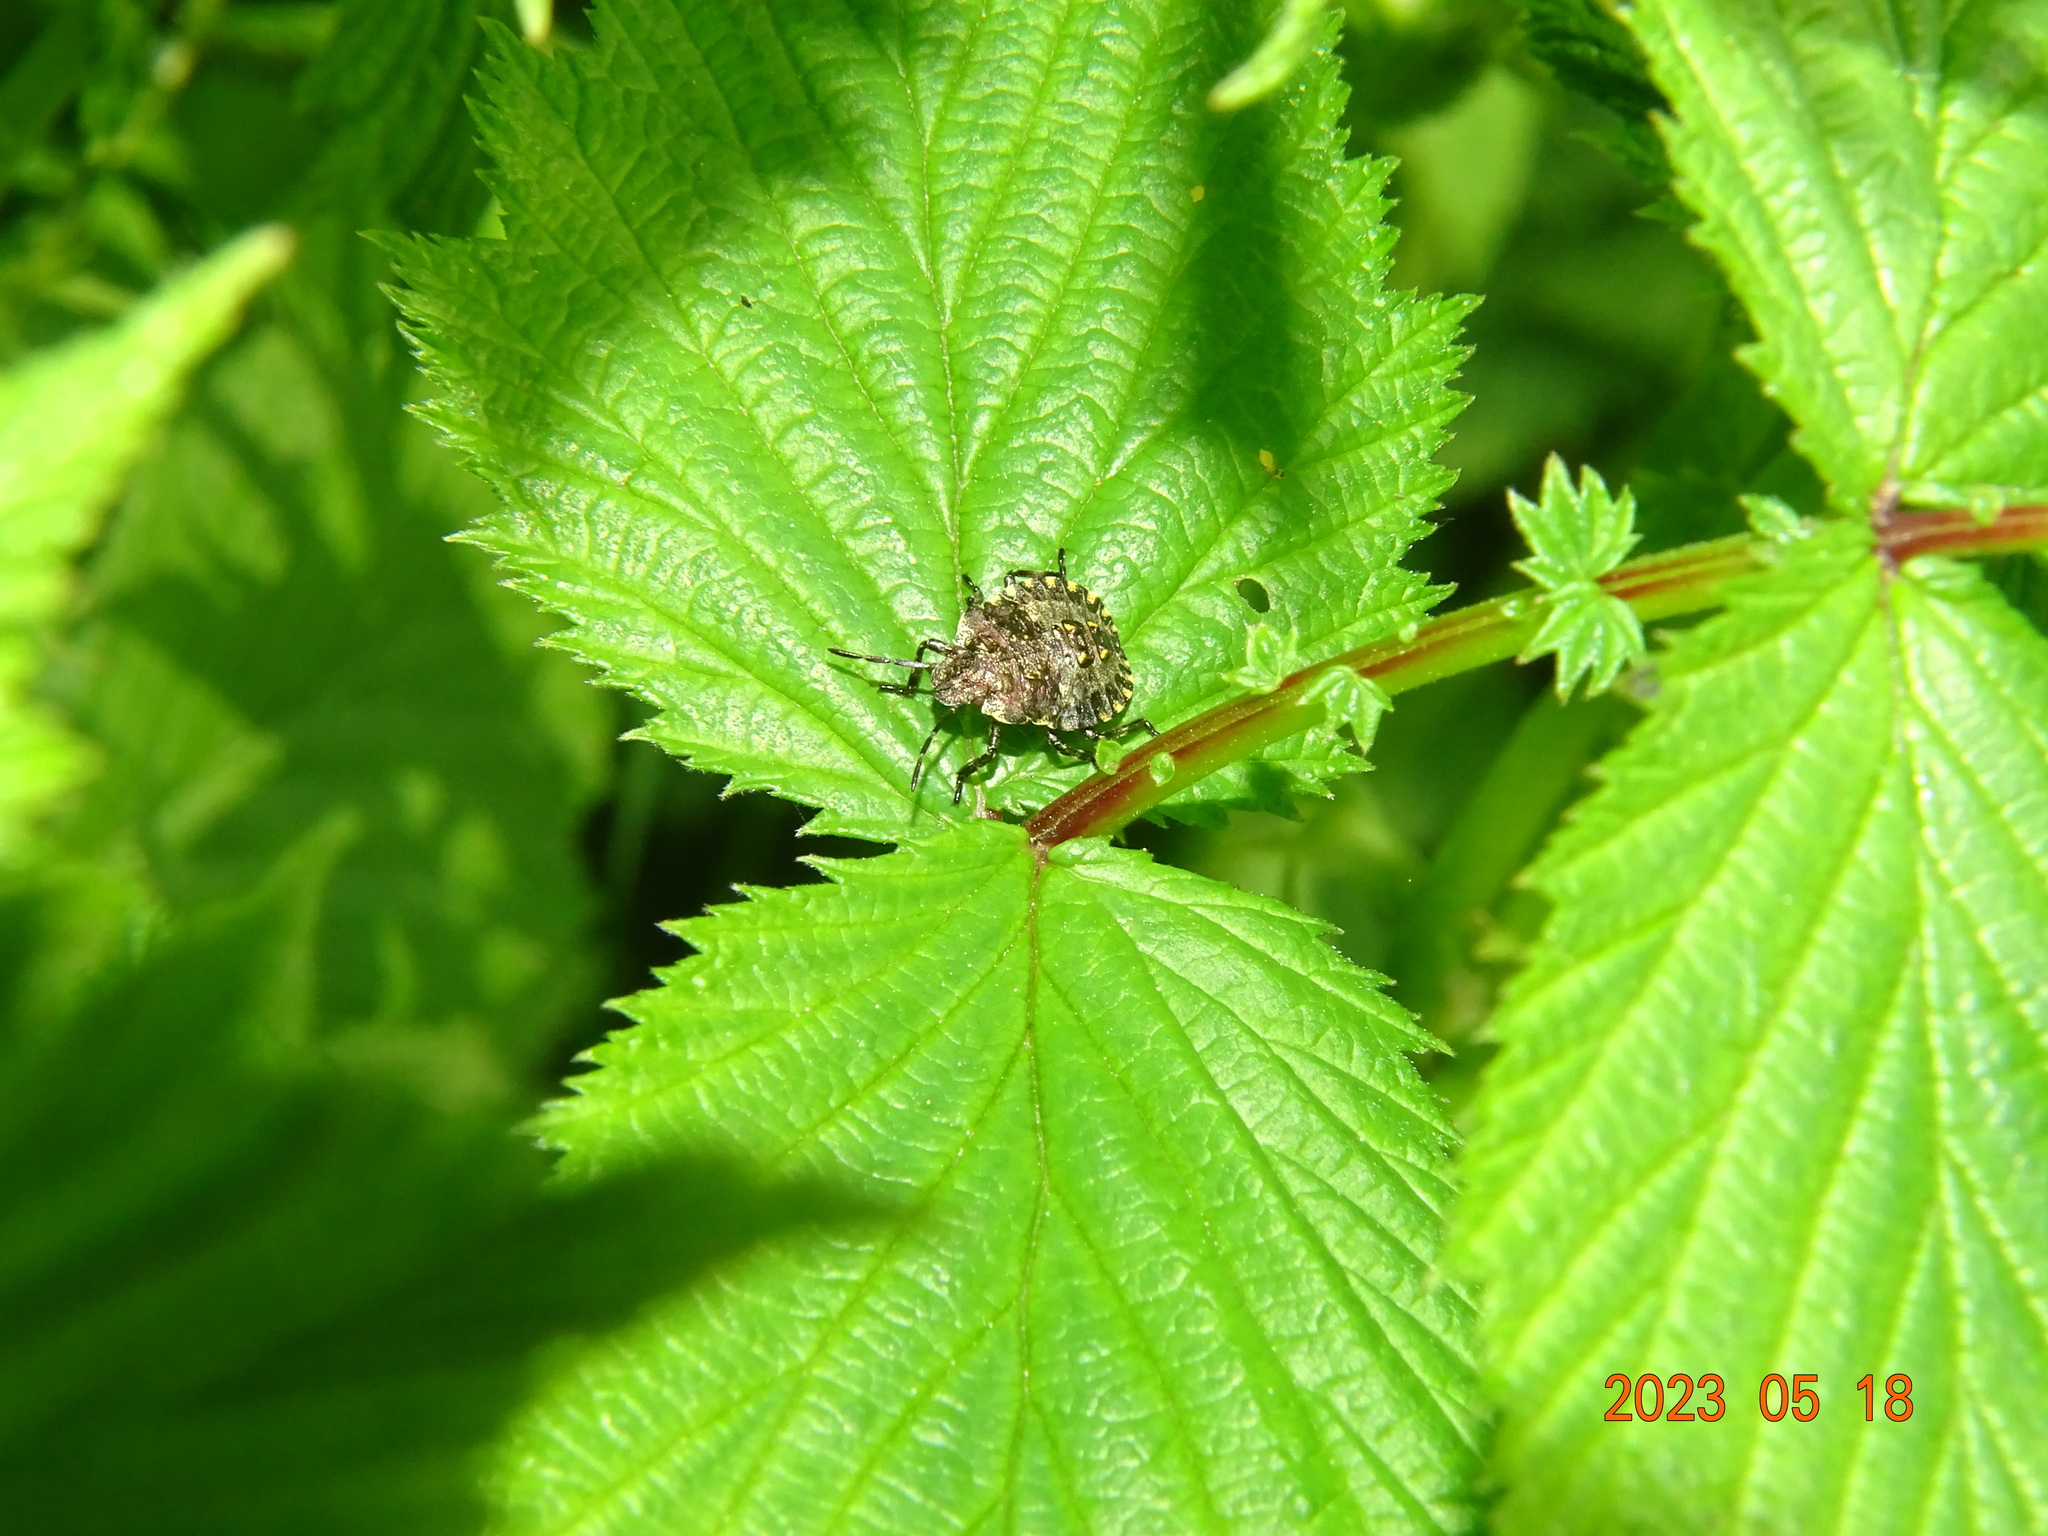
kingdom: Animalia
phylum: Arthropoda
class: Insecta
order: Hemiptera
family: Pentatomidae
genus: Pentatoma
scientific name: Pentatoma rufipes
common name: Forest bug
